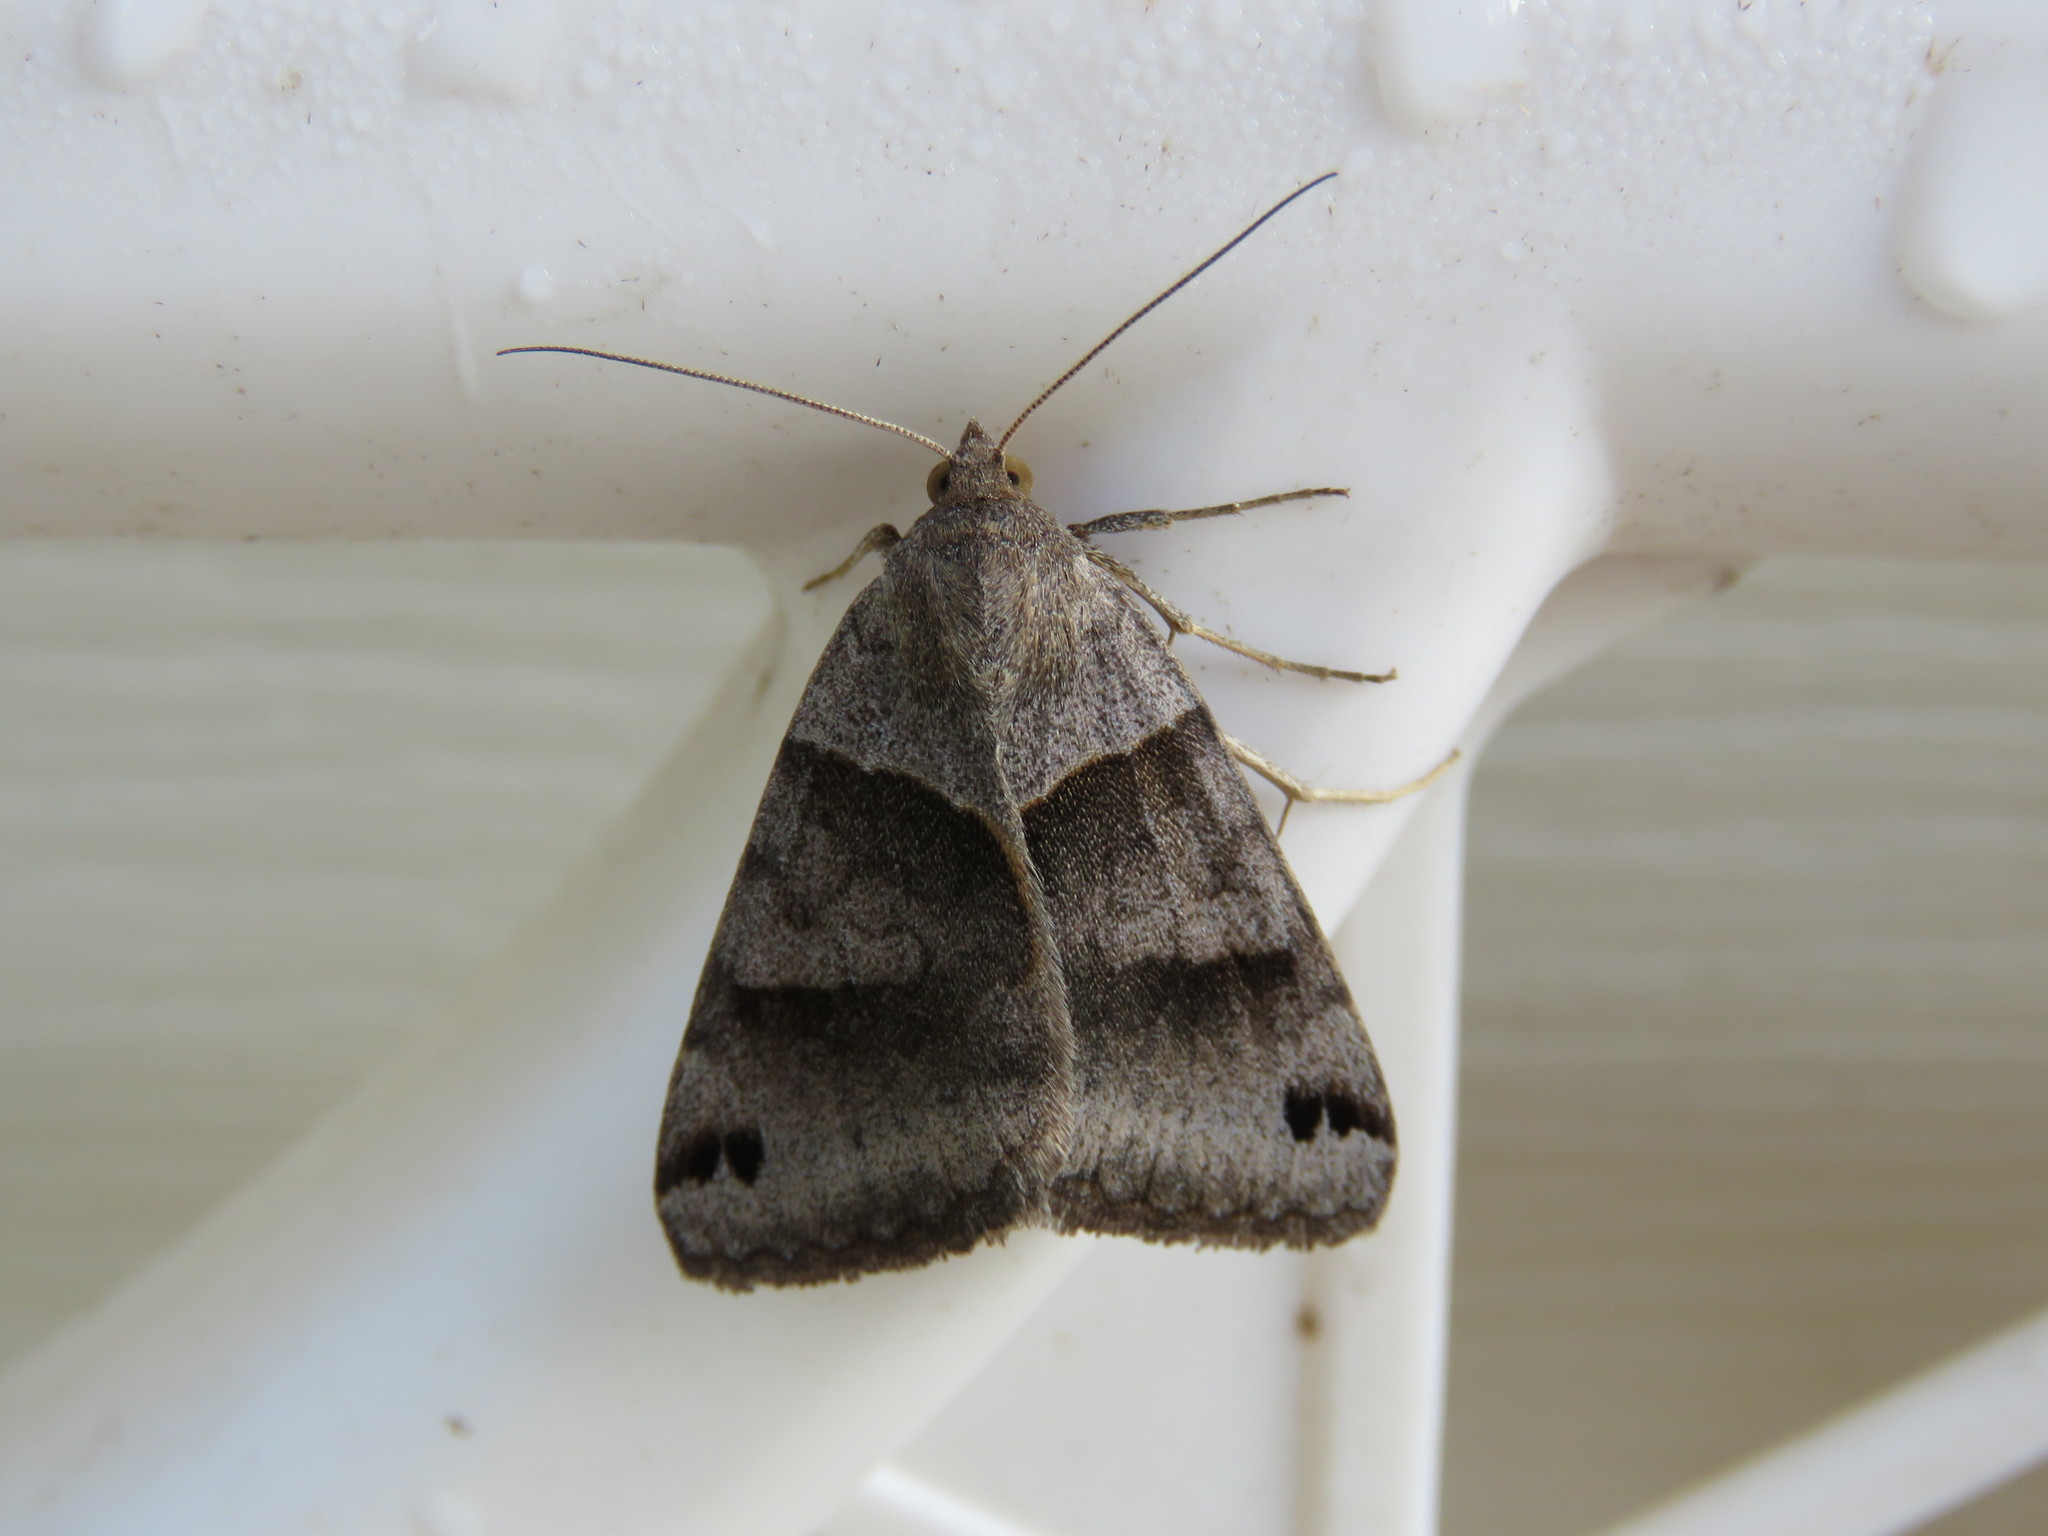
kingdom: Animalia
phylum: Arthropoda
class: Insecta
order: Lepidoptera
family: Erebidae
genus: Caenurgina
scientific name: Caenurgina crassiuscula
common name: Double-barred
